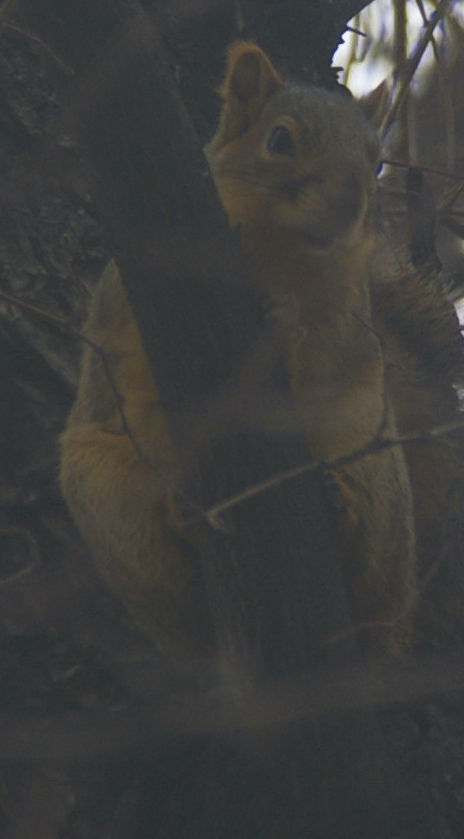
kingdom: Animalia
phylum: Chordata
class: Mammalia
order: Rodentia
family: Sciuridae
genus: Sciurus
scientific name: Sciurus niger
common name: Fox squirrel
